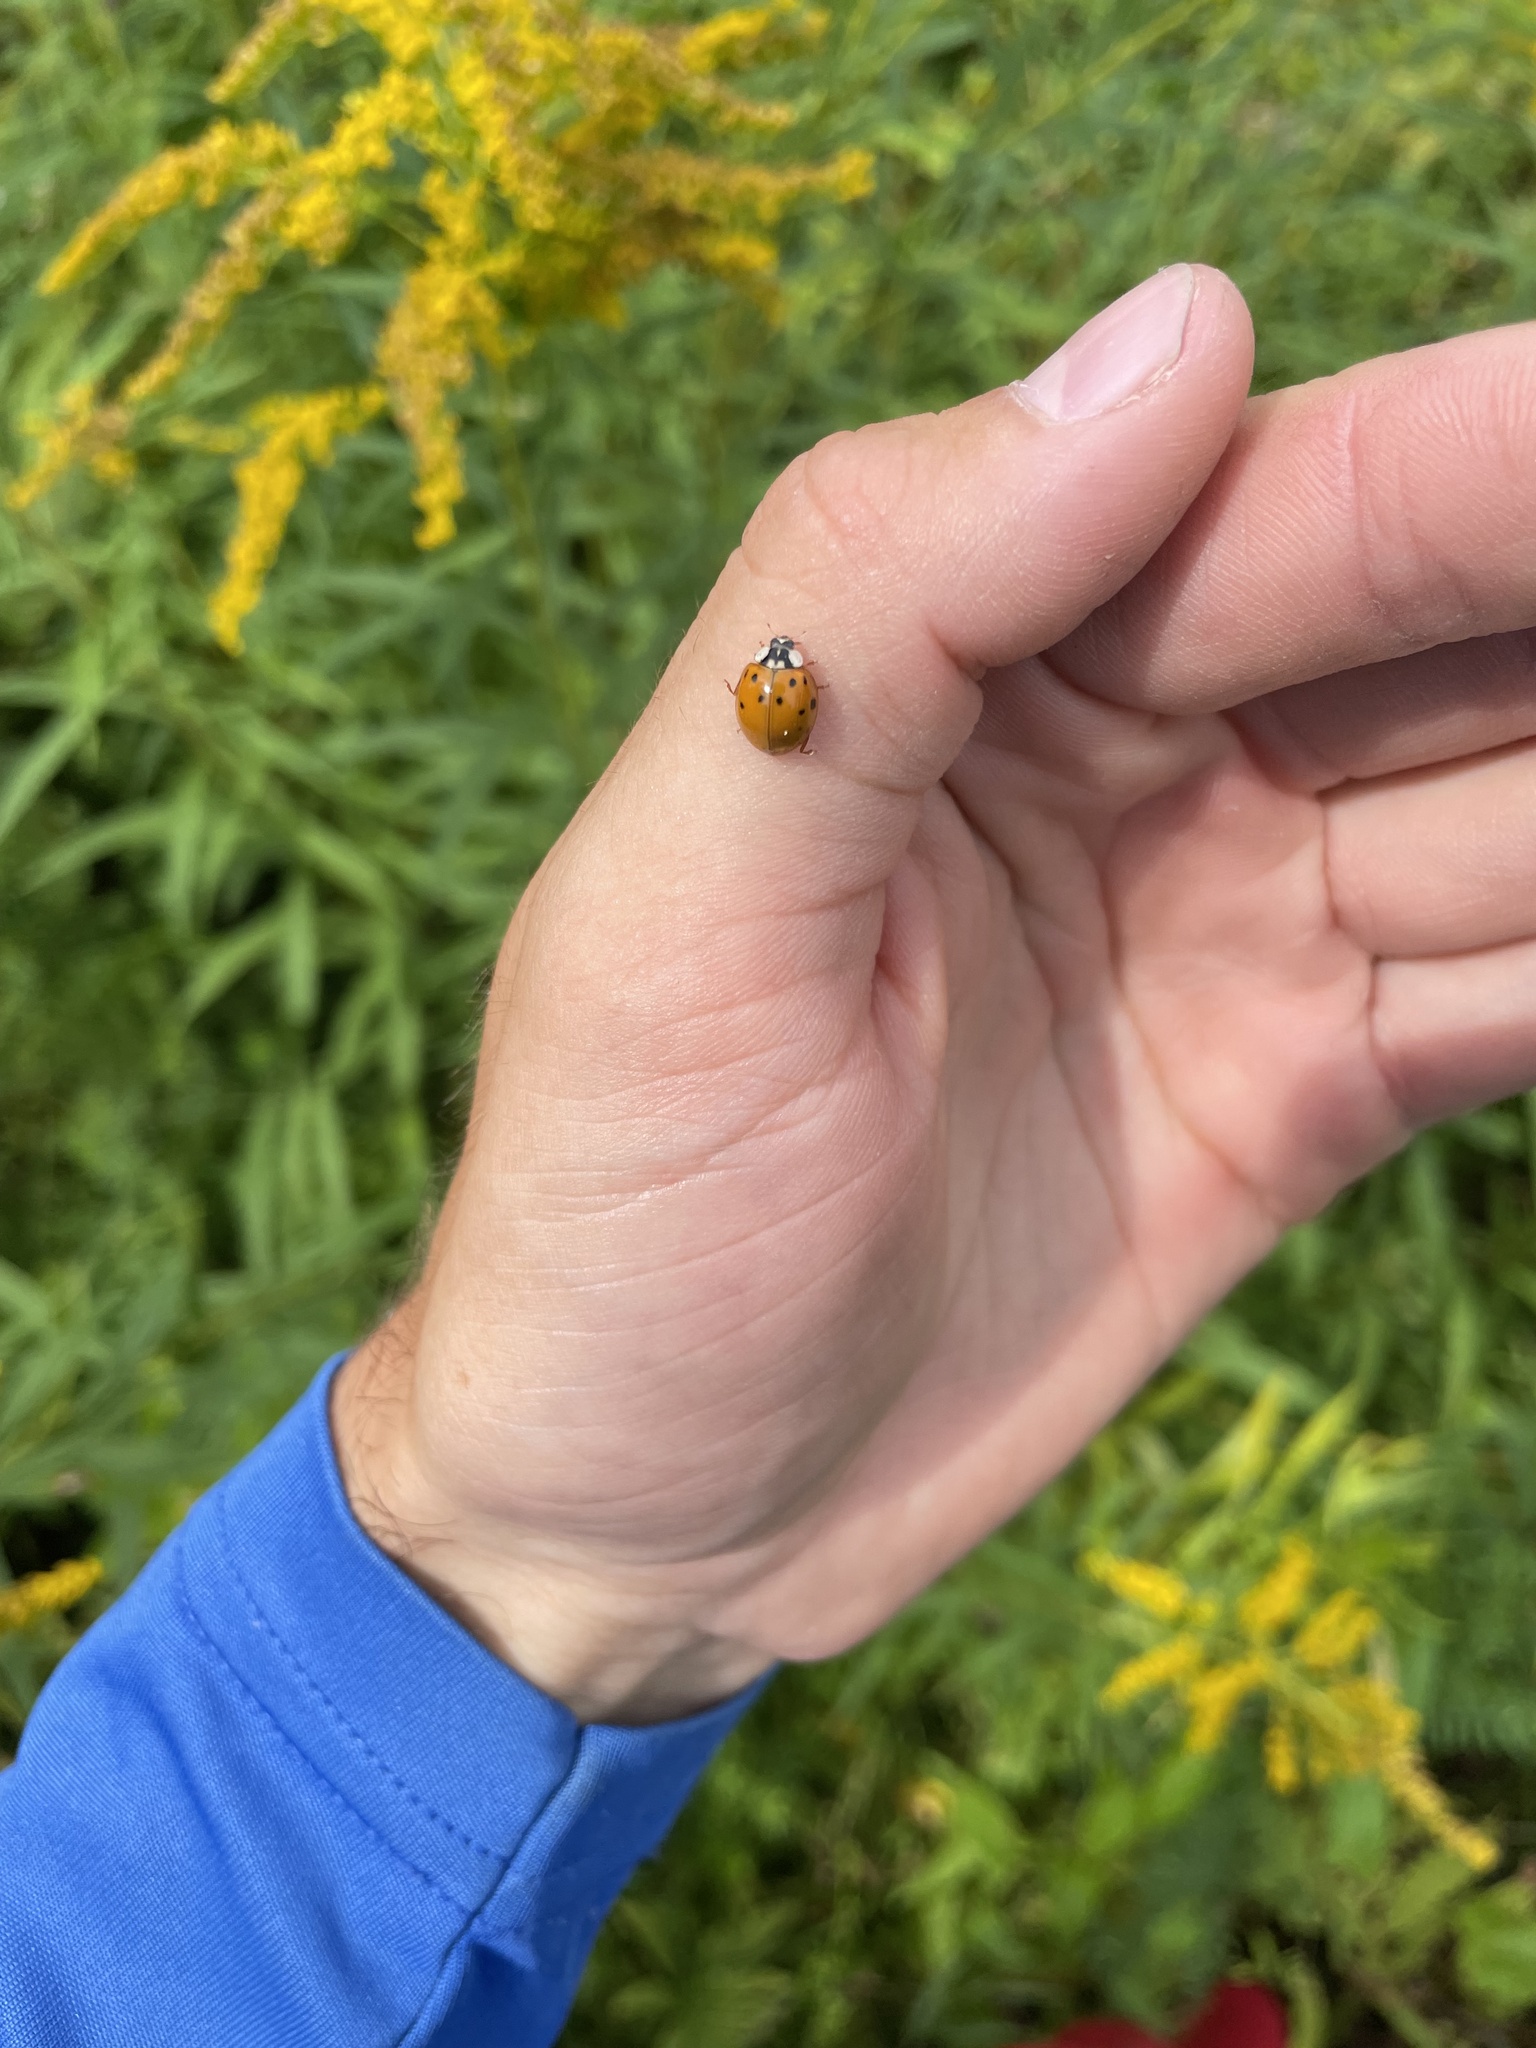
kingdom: Animalia
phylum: Arthropoda
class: Insecta
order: Coleoptera
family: Coccinellidae
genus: Harmonia
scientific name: Harmonia axyridis
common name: Harlequin ladybird
